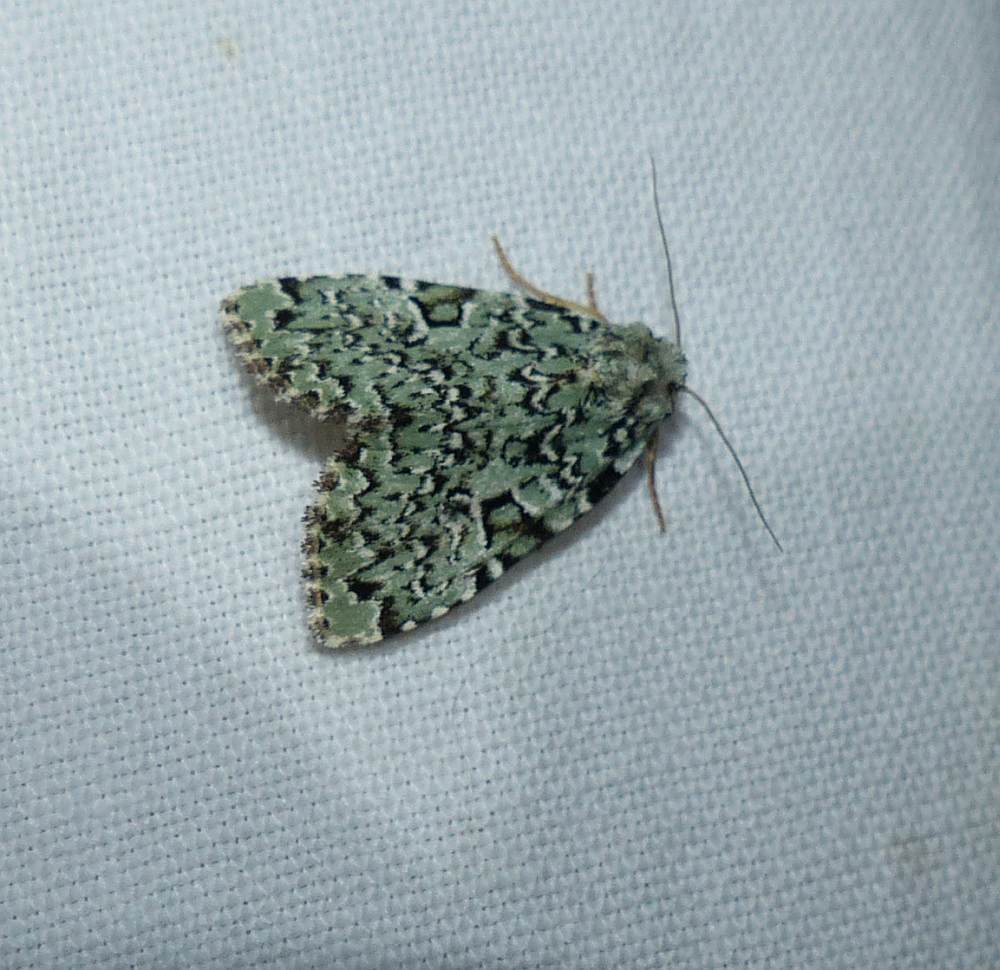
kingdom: Animalia
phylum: Arthropoda
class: Insecta
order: Lepidoptera
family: Noctuidae
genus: Leuconycta
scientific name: Leuconycta diphteroides
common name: Green leuconycta moth
